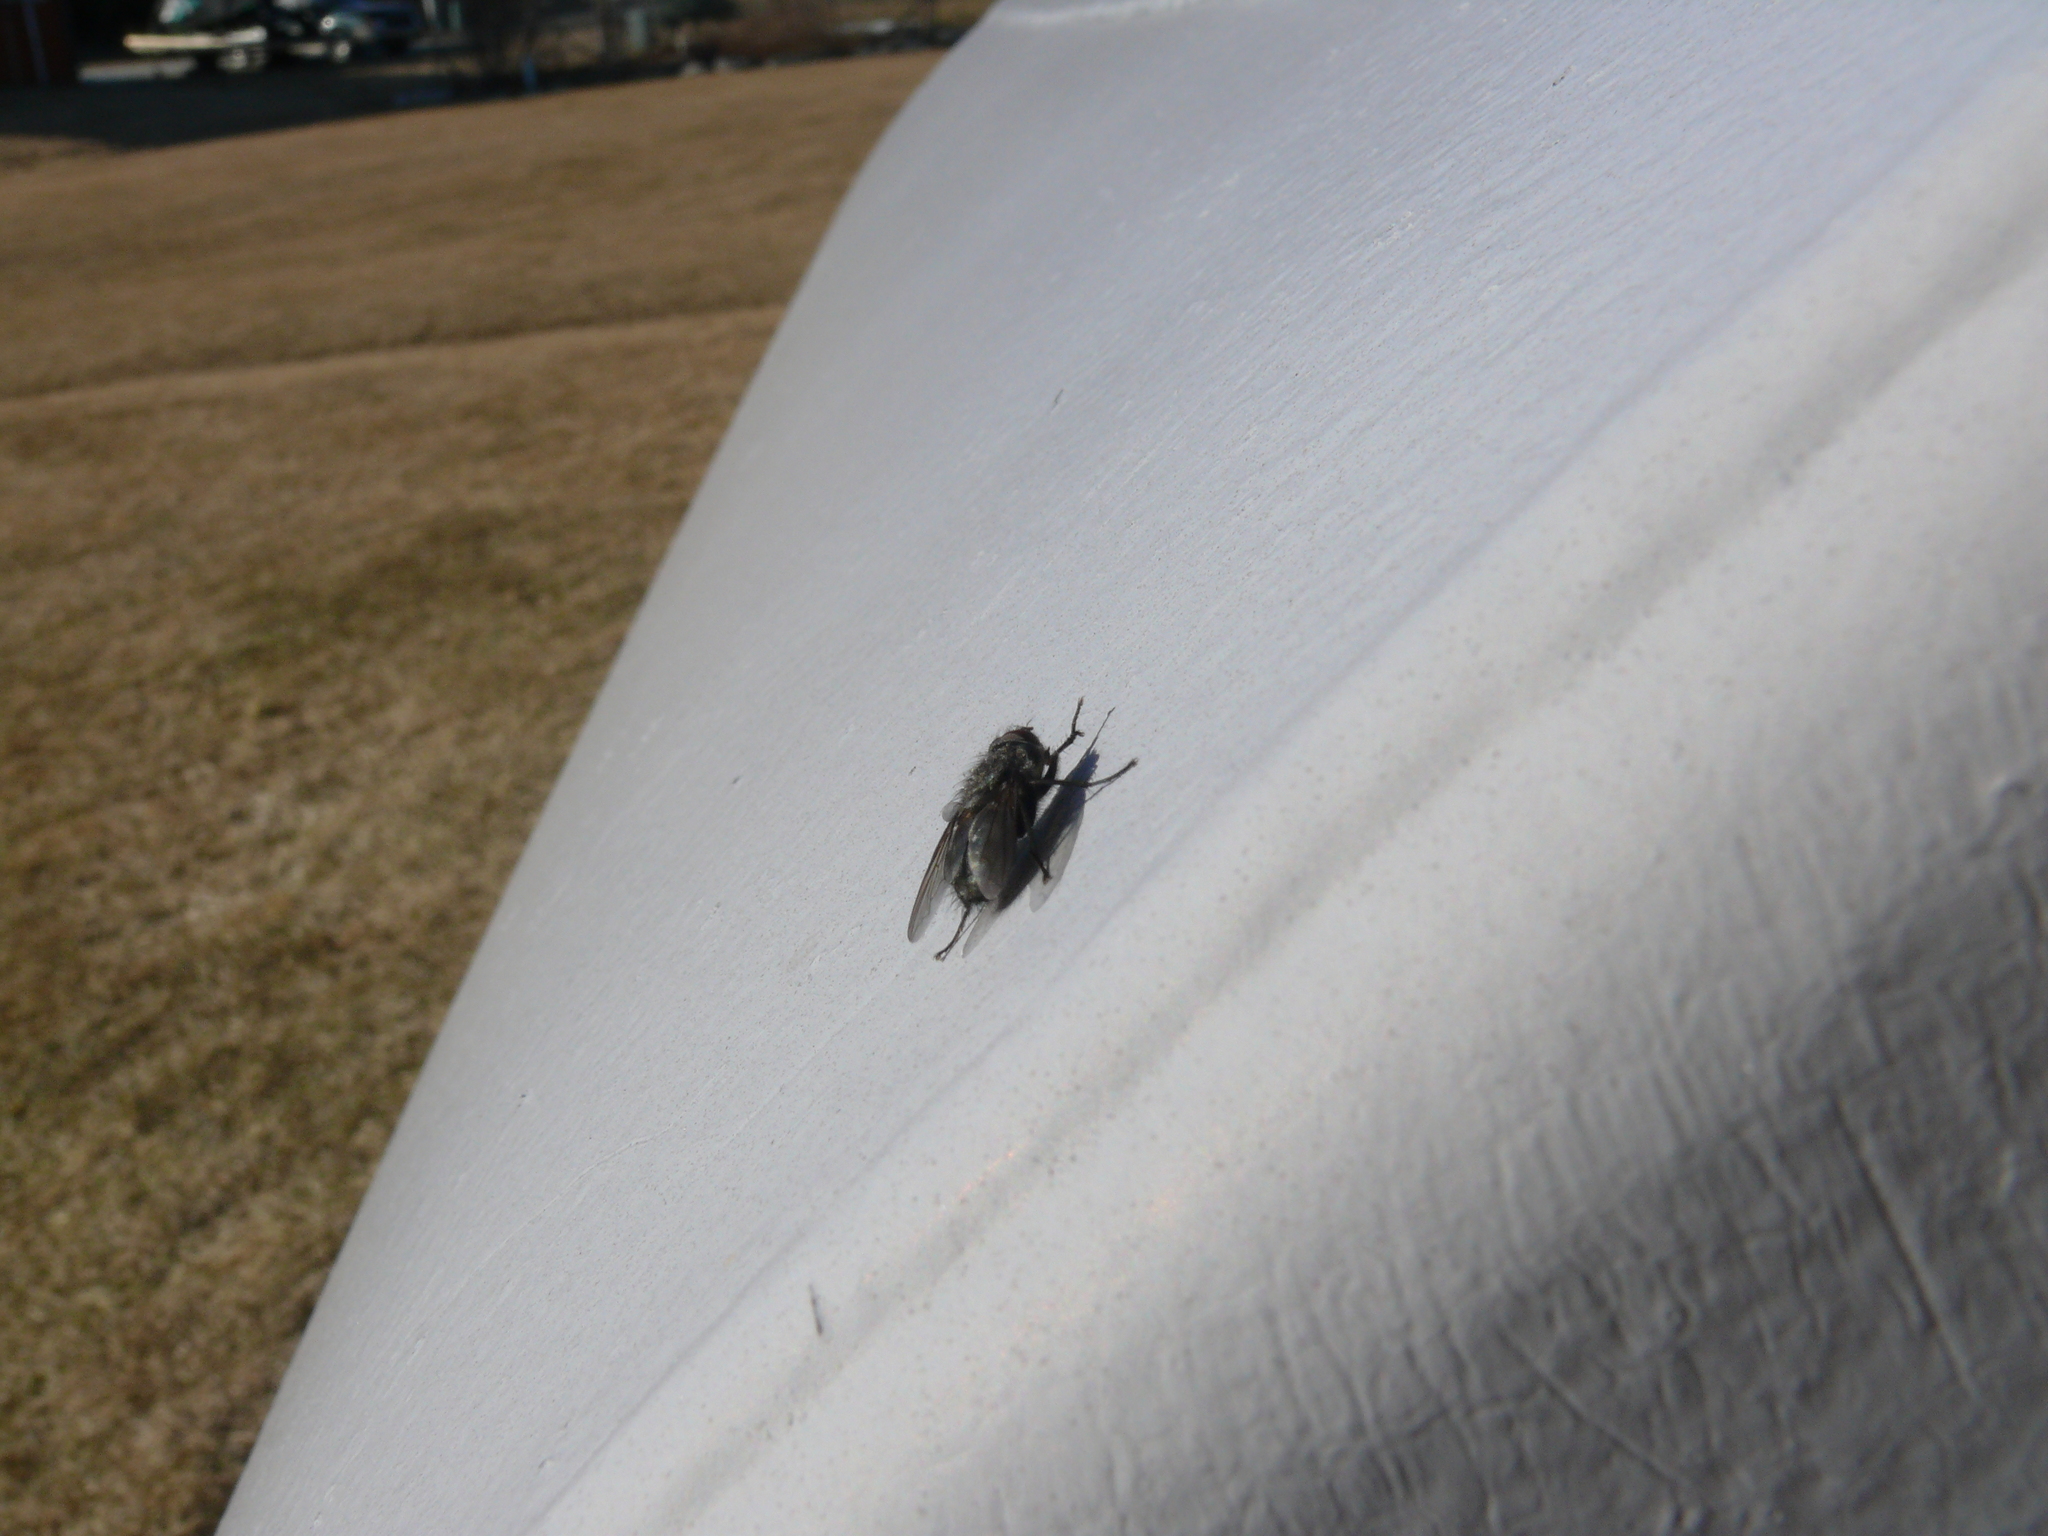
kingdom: Animalia
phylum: Arthropoda
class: Insecta
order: Diptera
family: Polleniidae
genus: Pollenia
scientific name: Pollenia
